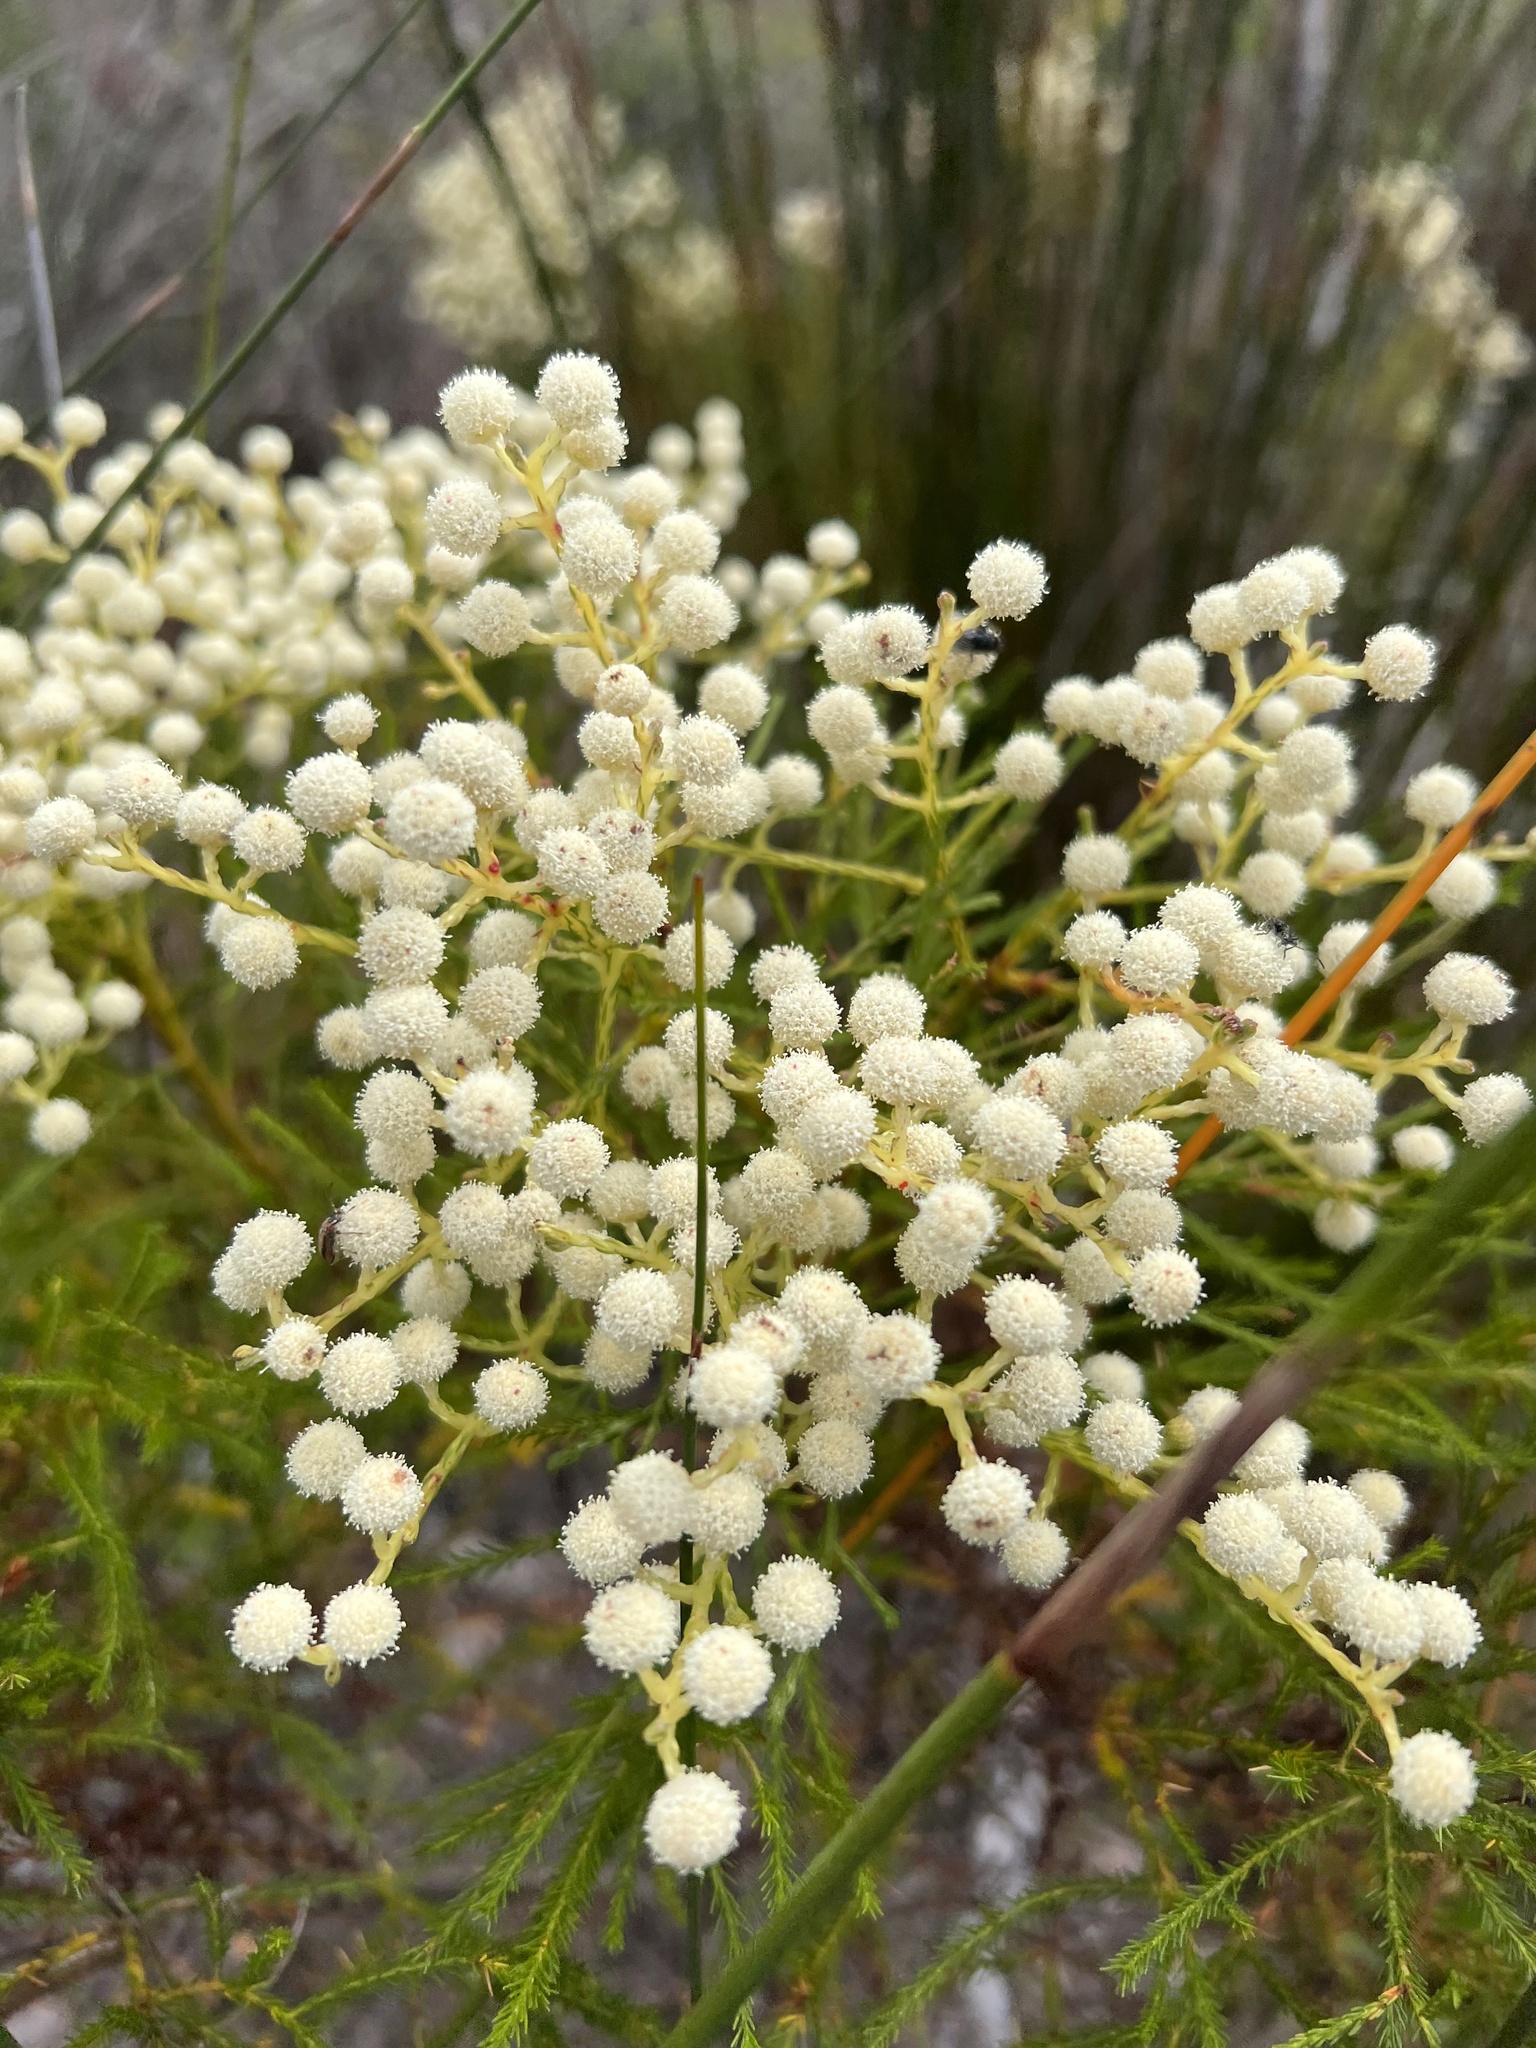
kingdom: Plantae
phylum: Tracheophyta
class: Magnoliopsida
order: Bruniales
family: Bruniaceae
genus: Berzelia
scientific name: Berzelia lanuginosa
